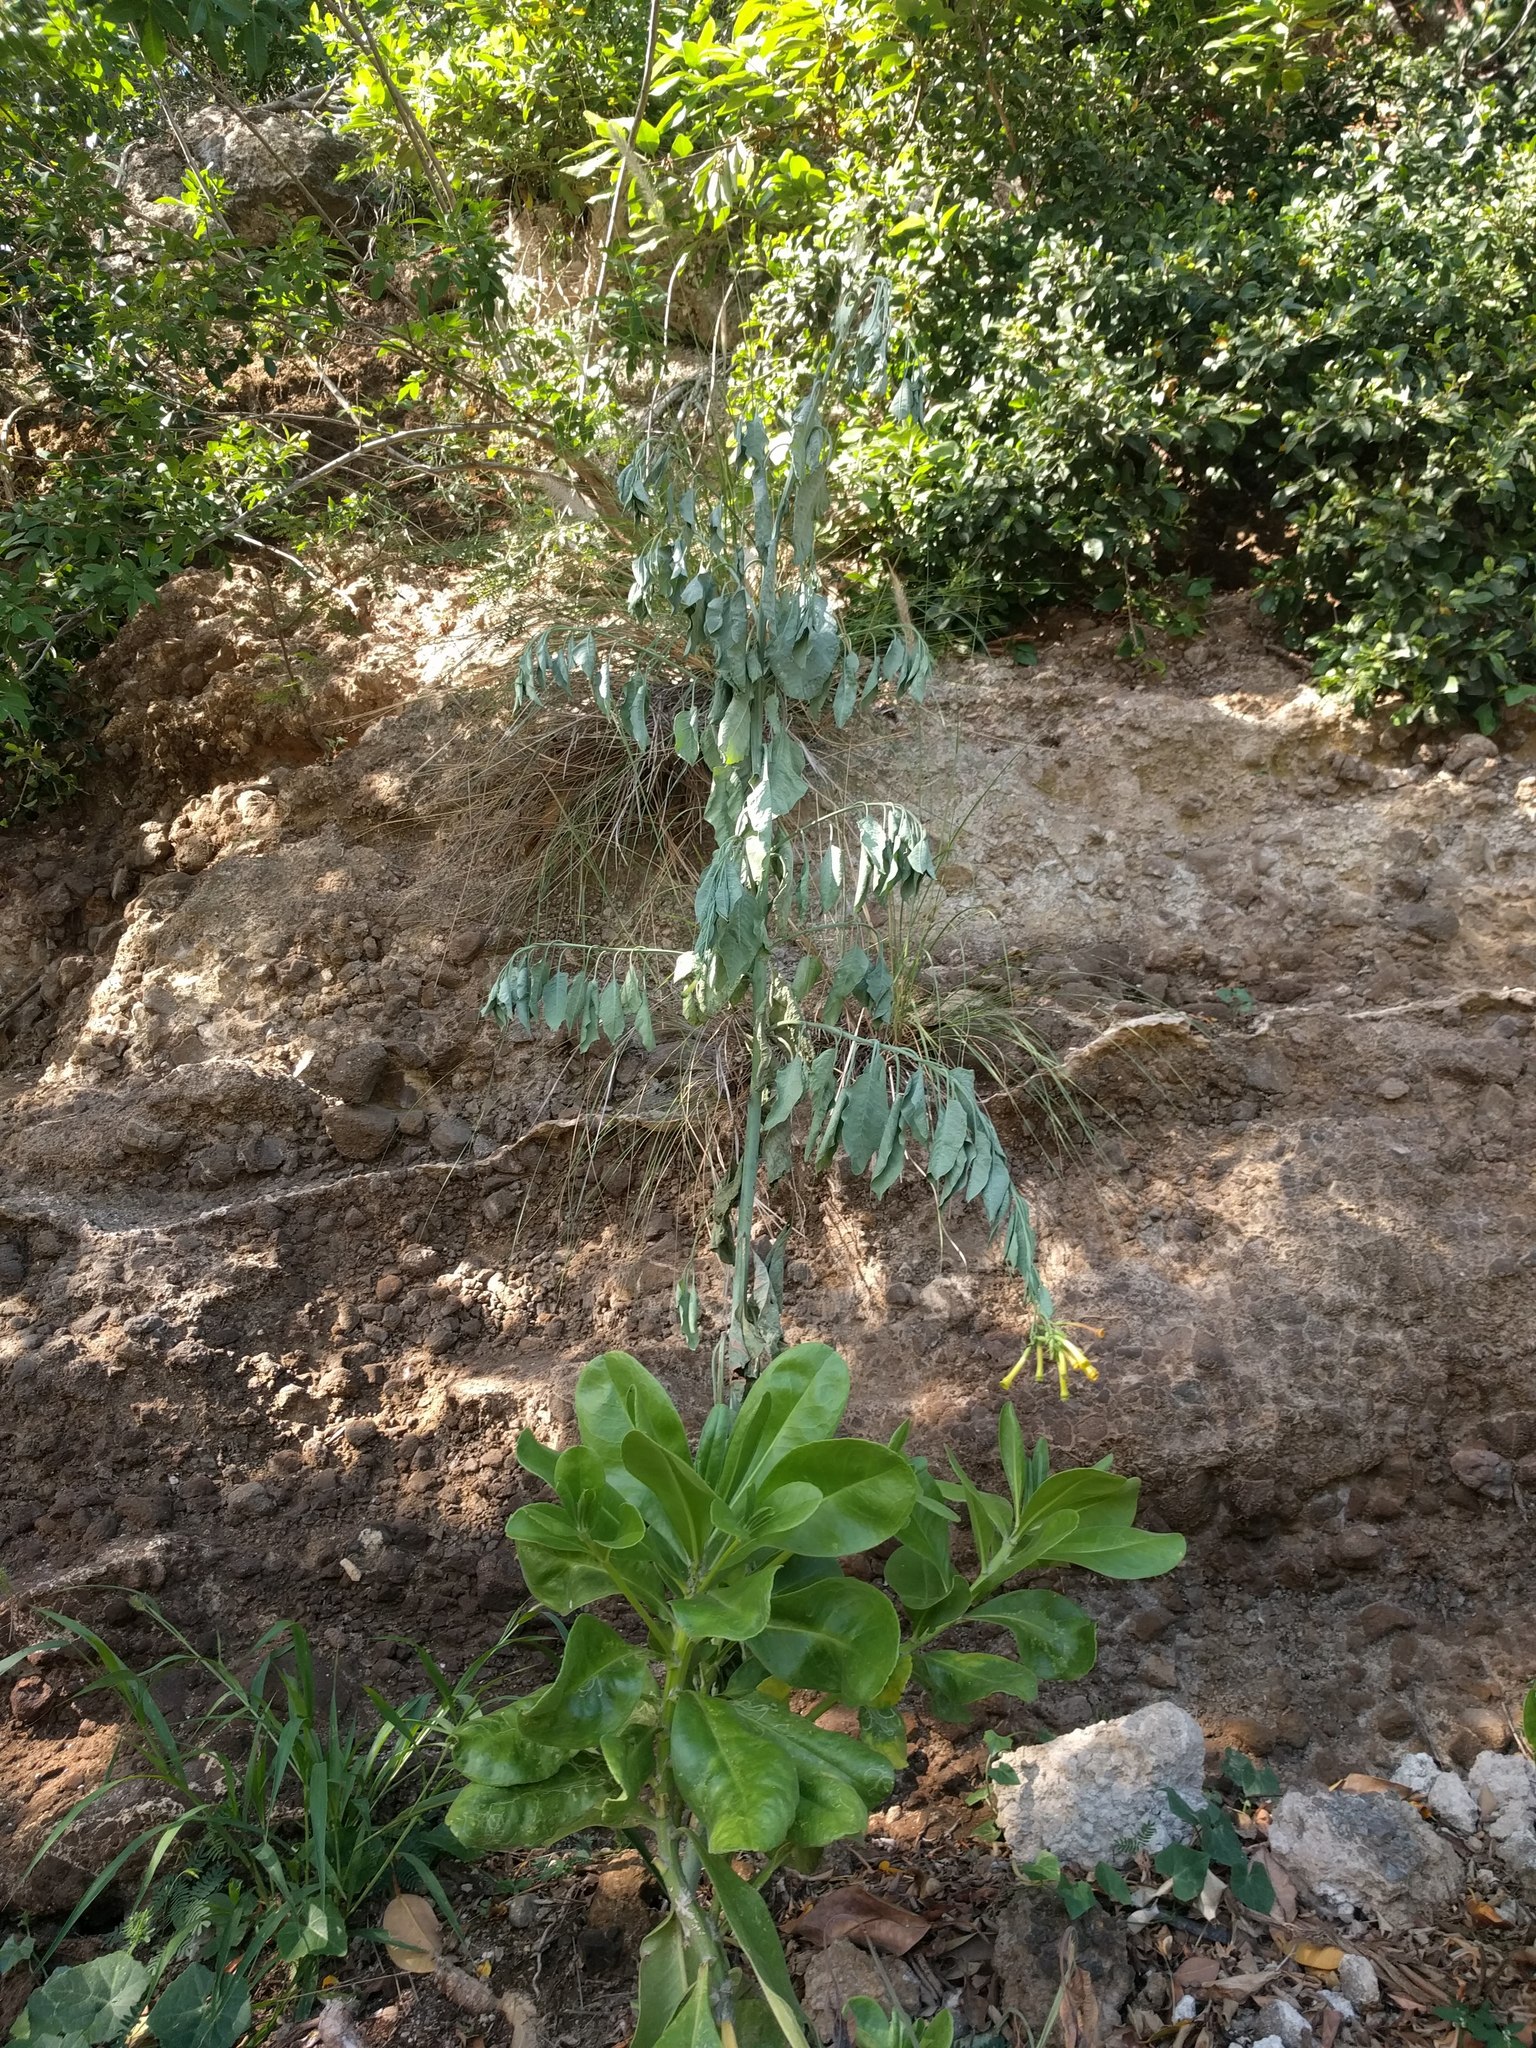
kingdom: Plantae
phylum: Tracheophyta
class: Magnoliopsida
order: Solanales
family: Solanaceae
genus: Nicotiana
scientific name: Nicotiana glauca
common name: Tree tobacco
